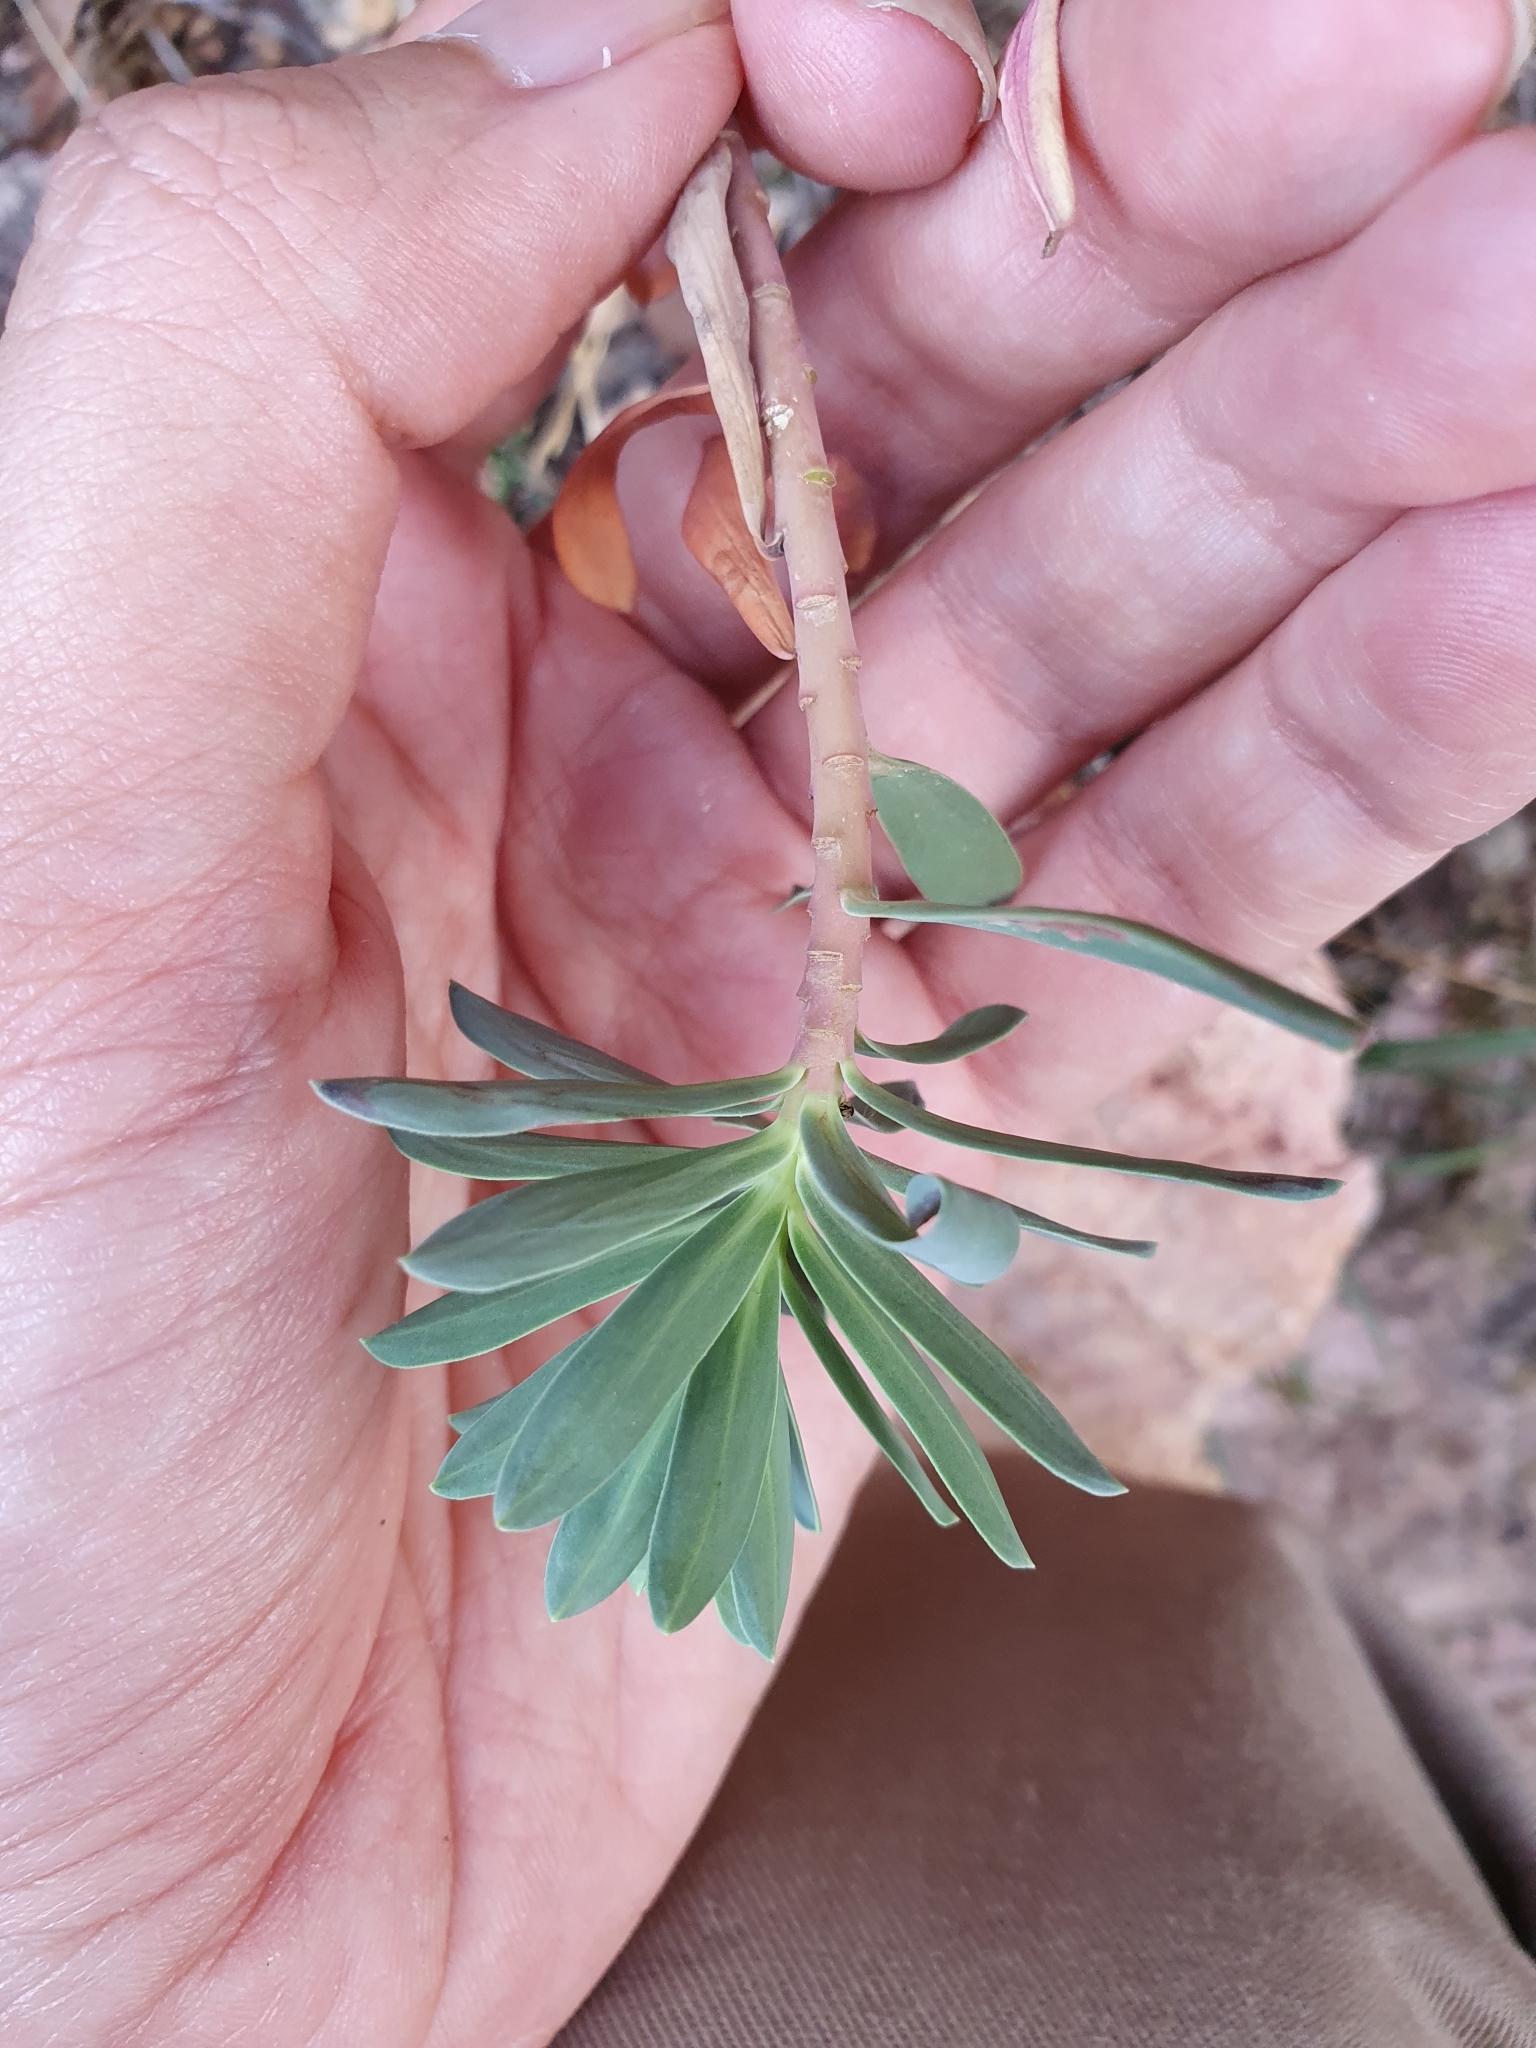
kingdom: Plantae
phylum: Tracheophyta
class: Magnoliopsida
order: Malpighiales
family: Euphorbiaceae
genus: Euphorbia
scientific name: Euphorbia nicaeensis
